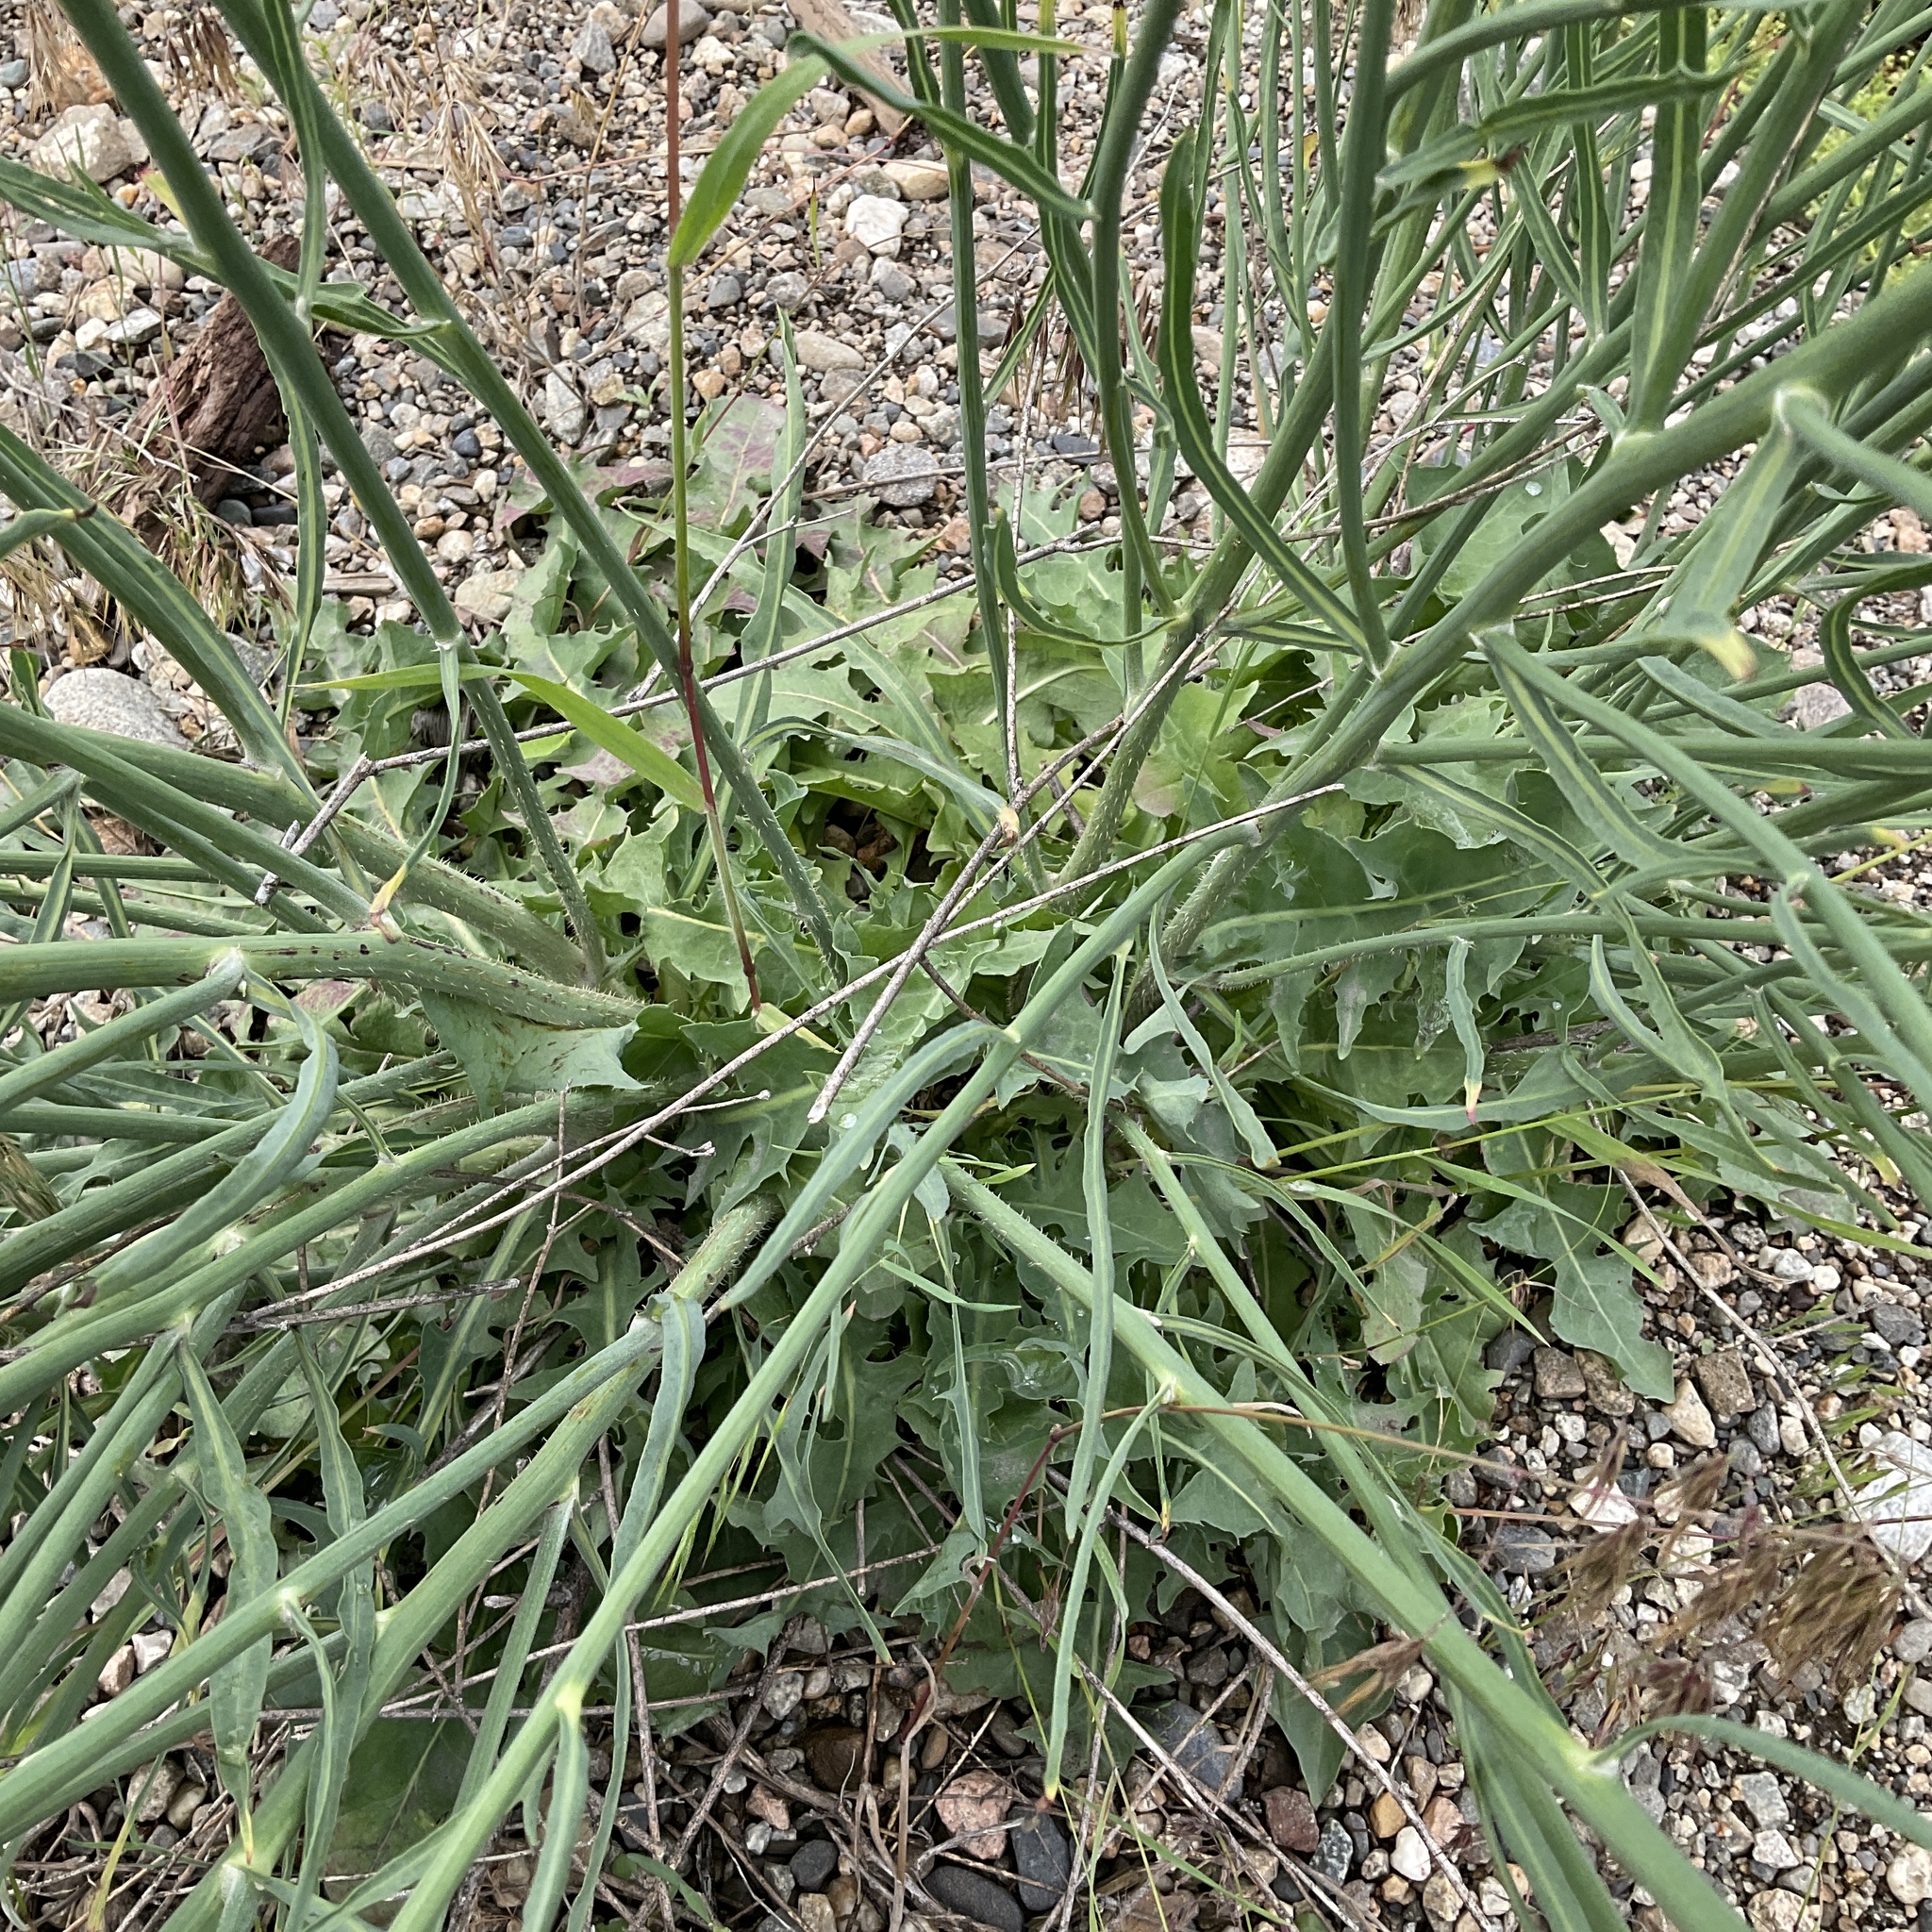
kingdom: Plantae
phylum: Tracheophyta
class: Magnoliopsida
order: Asterales
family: Asteraceae
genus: Chondrilla
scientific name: Chondrilla juncea
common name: Skeleton weed
